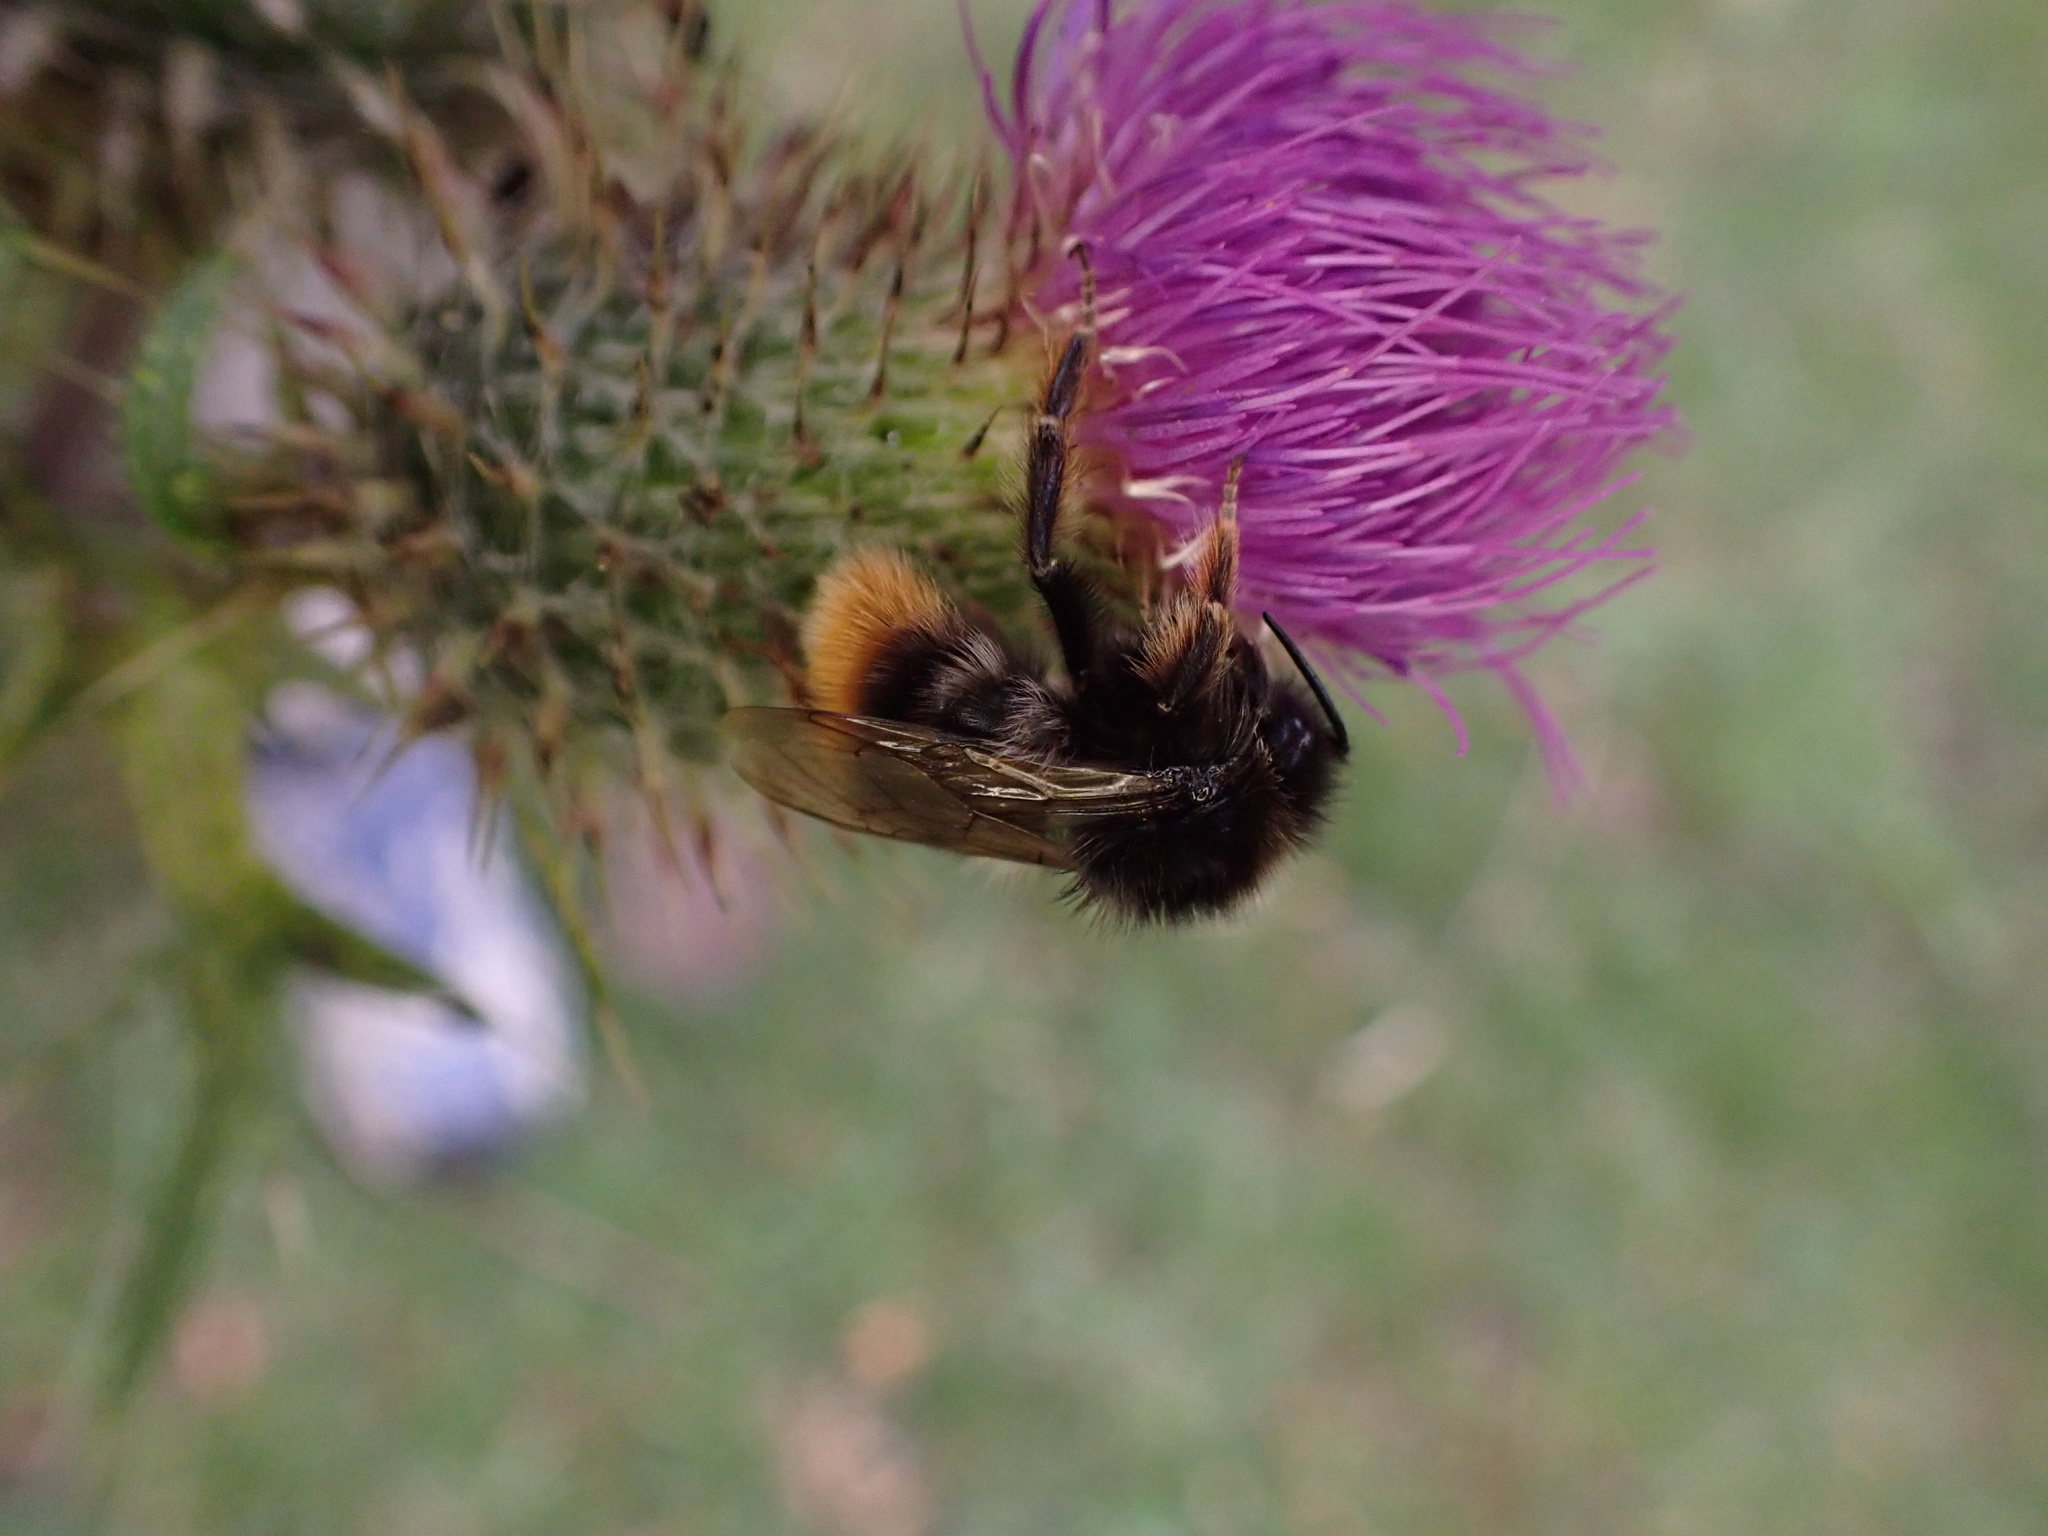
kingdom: Animalia
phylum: Arthropoda
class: Insecta
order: Hymenoptera
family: Apidae
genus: Bombus
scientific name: Bombus rupestris
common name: Hill cuckoo-bee
